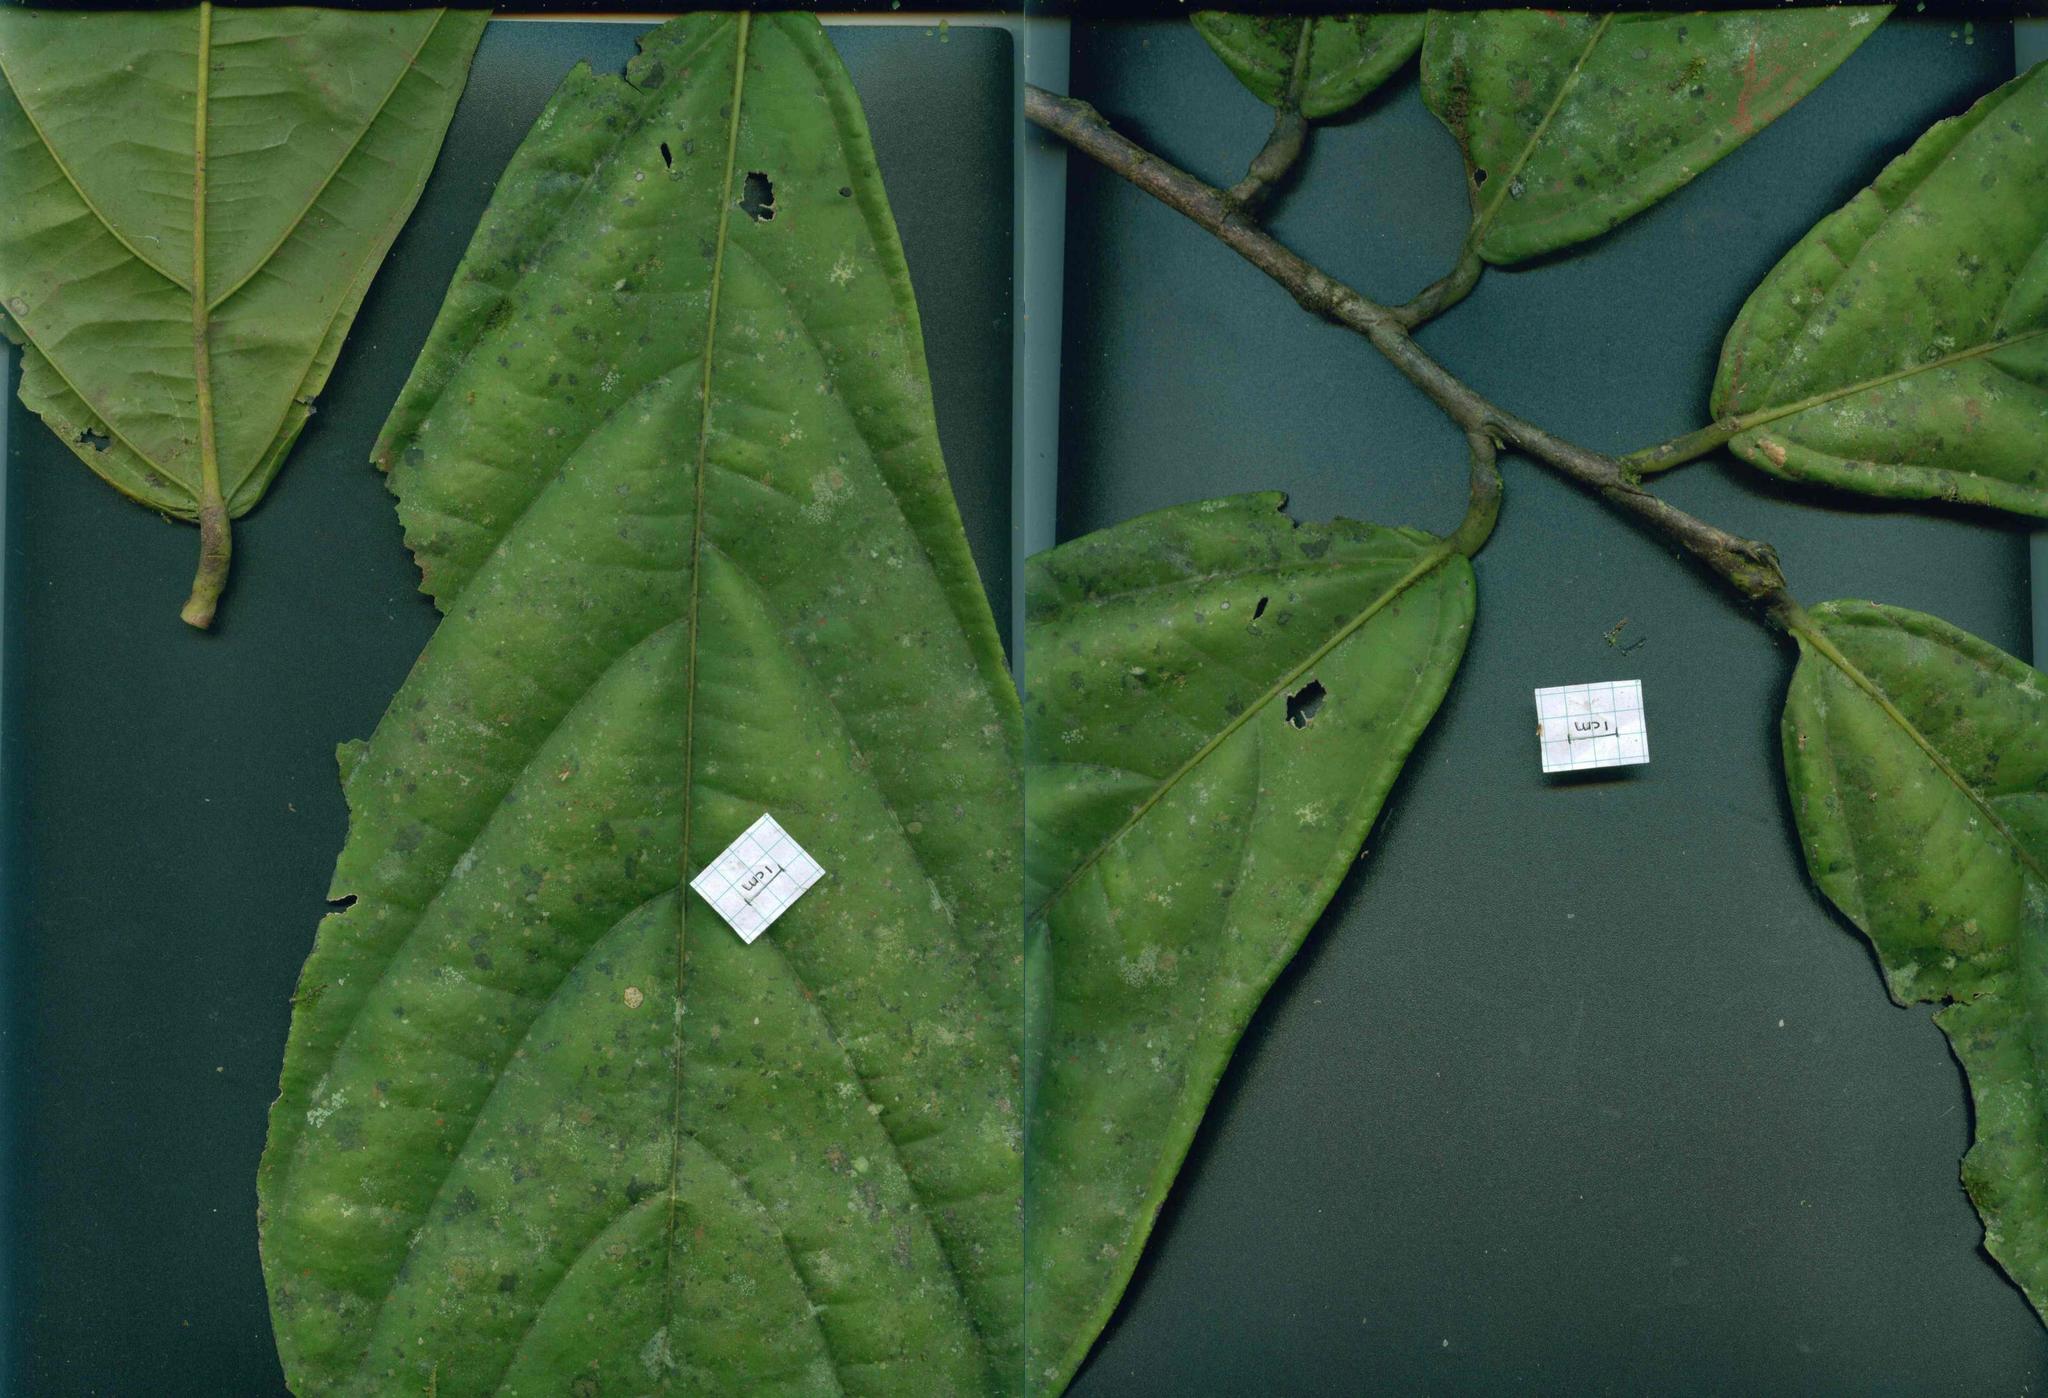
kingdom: Plantae
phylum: Tracheophyta
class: Magnoliopsida
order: Malvales
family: Malvaceae
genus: Quararibea
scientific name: Quararibea platyphylla
